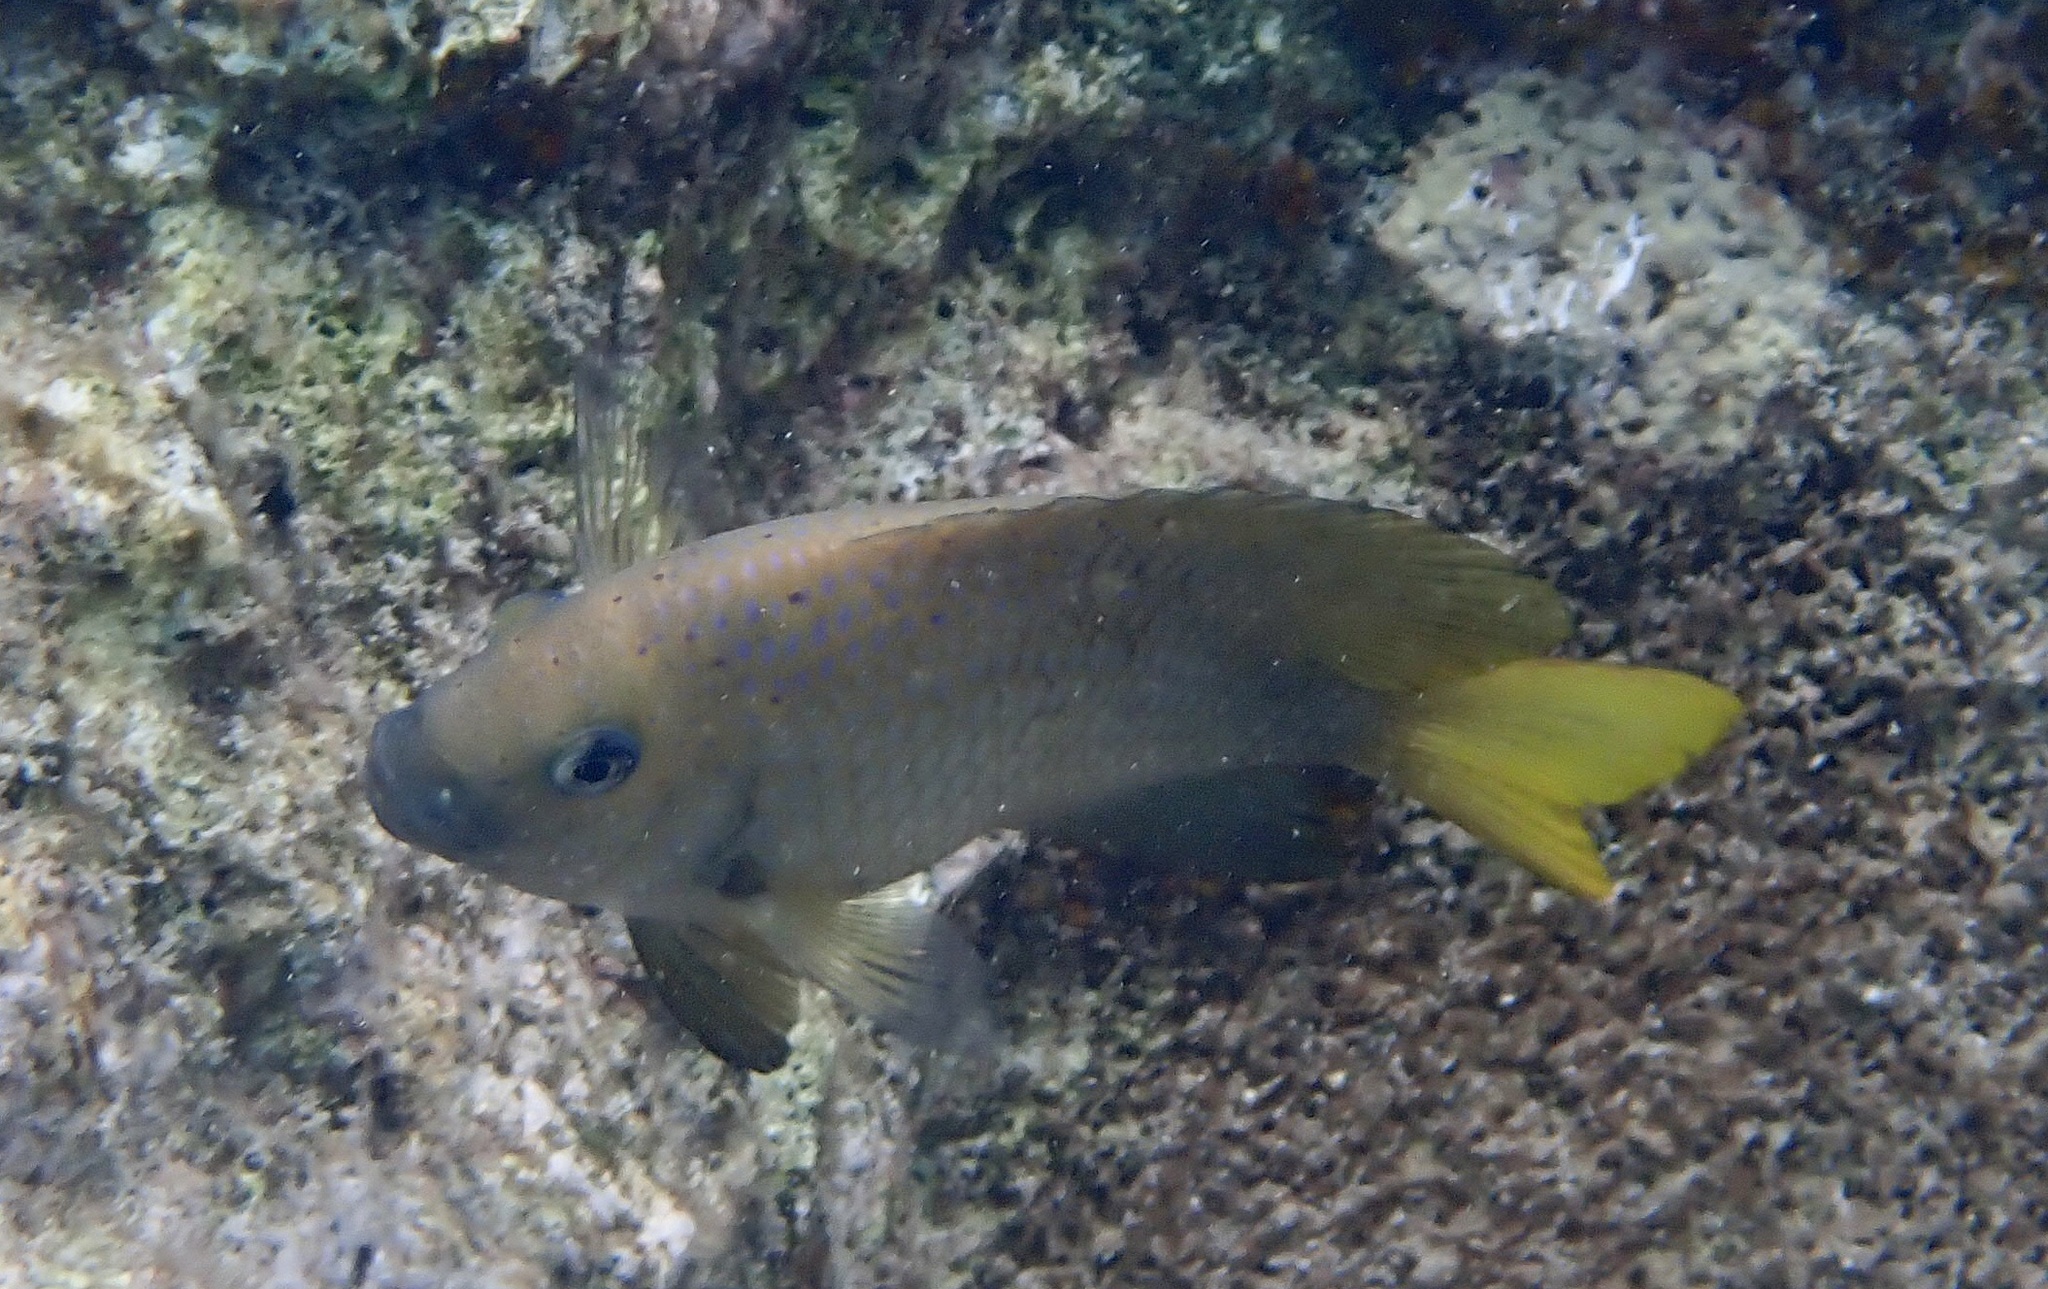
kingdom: Animalia
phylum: Chordata
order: Perciformes
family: Pomacentridae
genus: Microspathodon
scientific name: Microspathodon chrysurus
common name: Yellowtail damselfish
